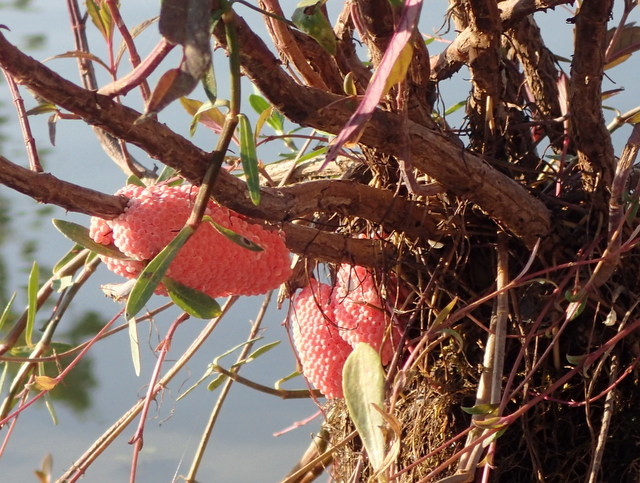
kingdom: Animalia
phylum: Mollusca
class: Gastropoda
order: Architaenioglossa
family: Ampullariidae
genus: Pomacea
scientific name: Pomacea maculata
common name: Giant applesnail
